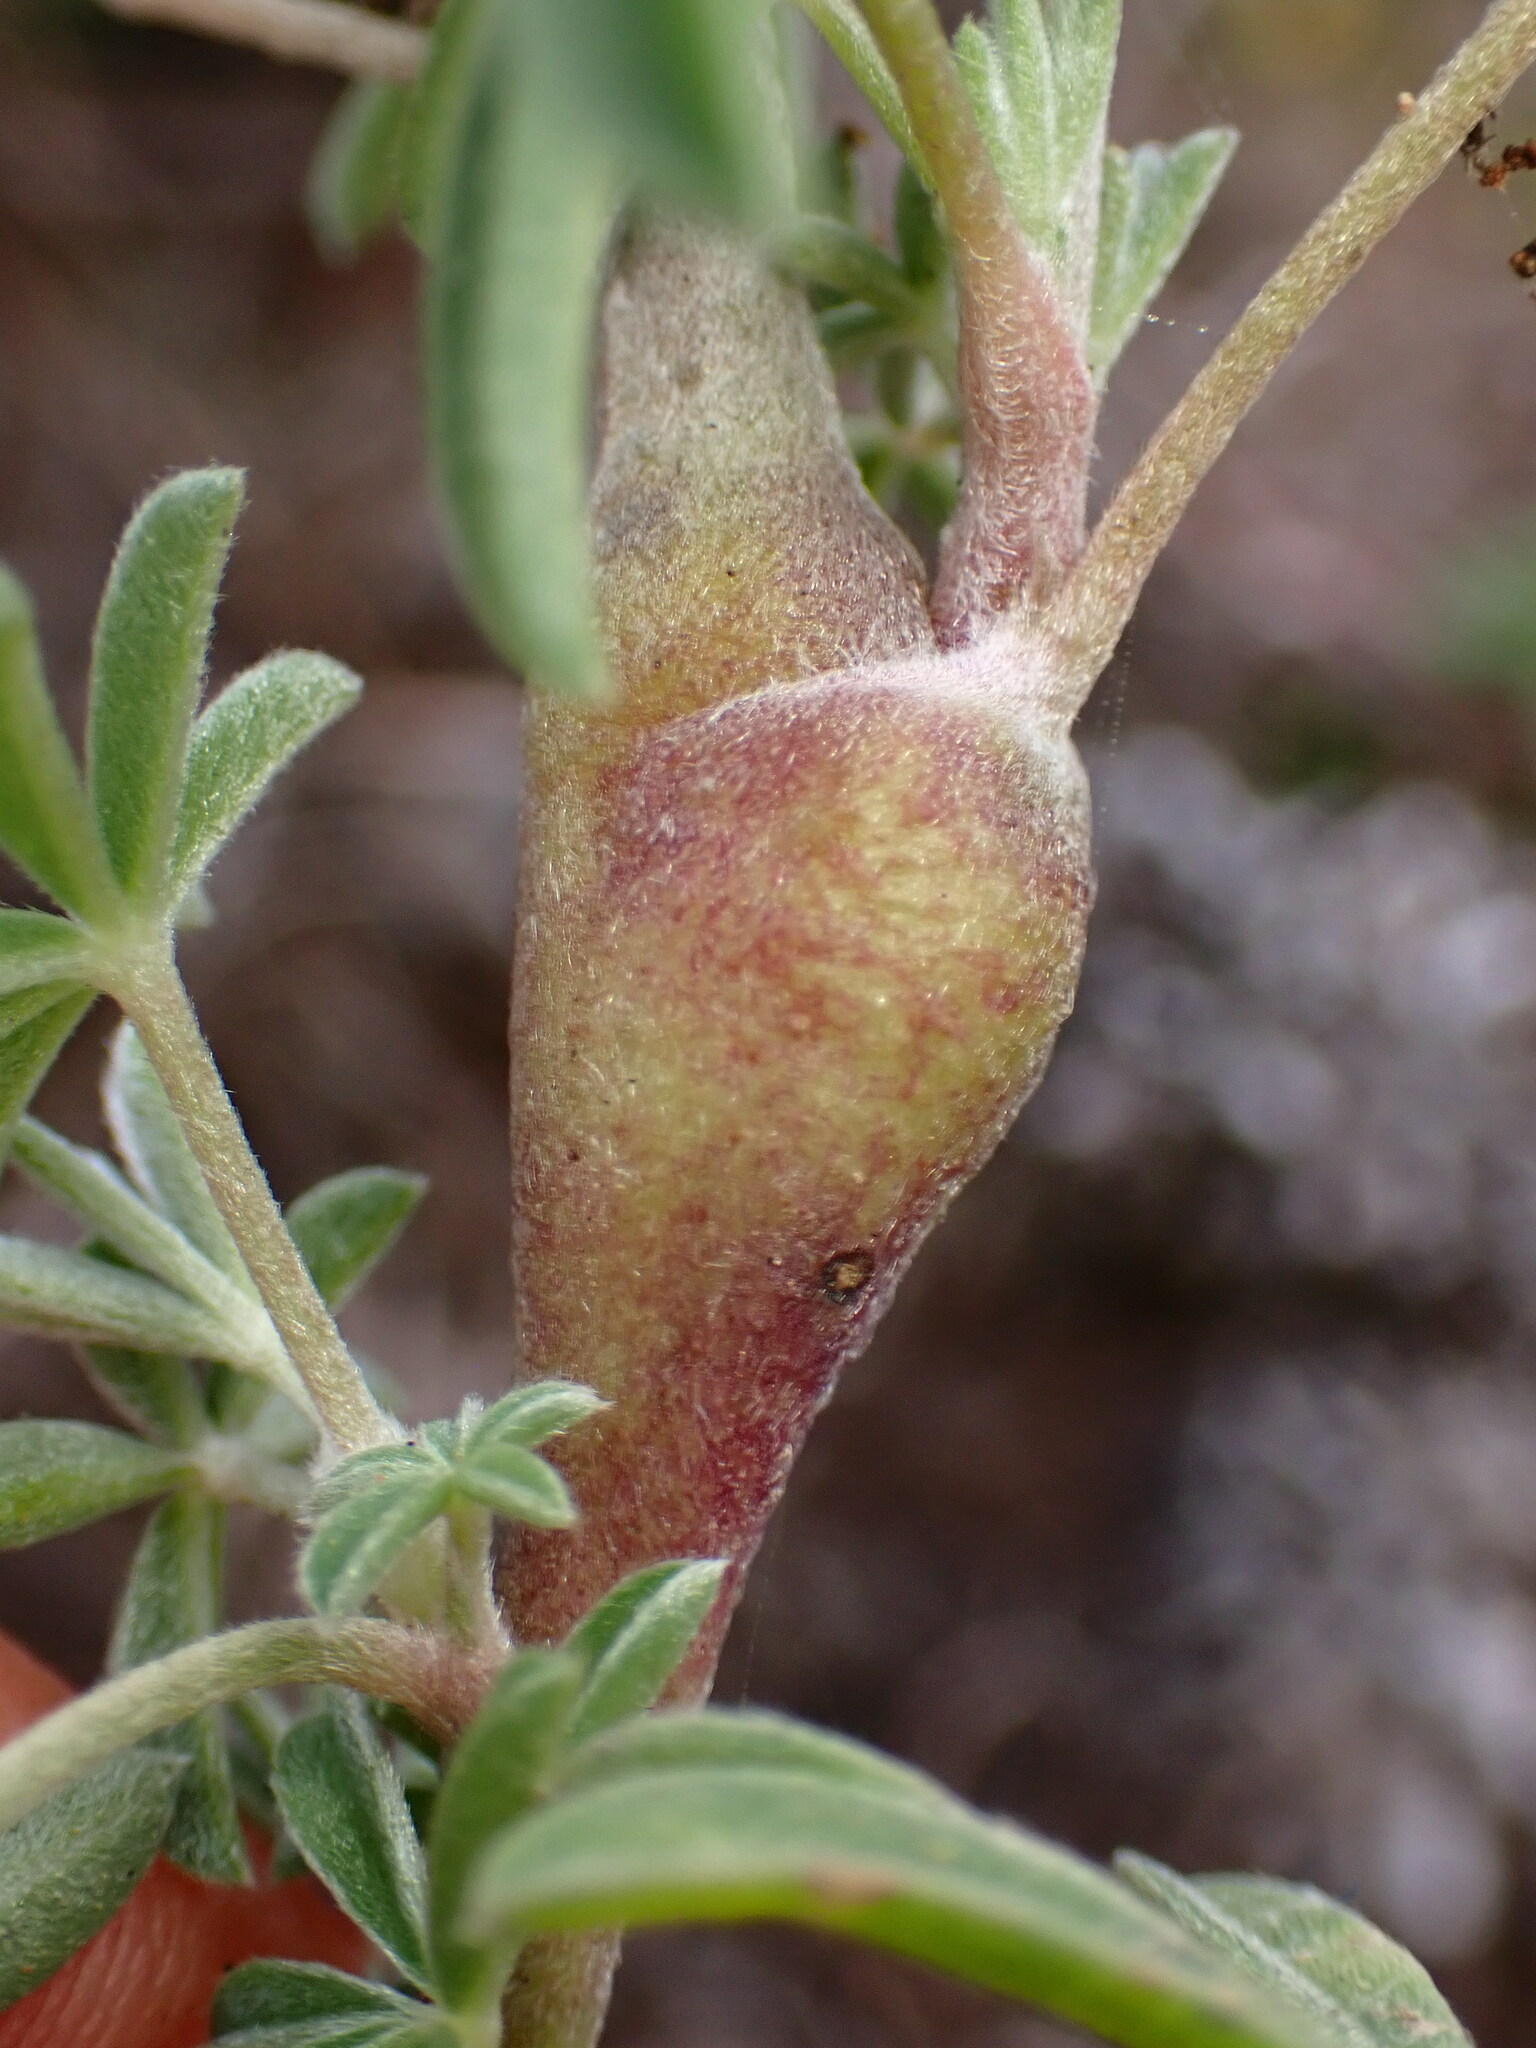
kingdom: Animalia
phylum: Arthropoda
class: Insecta
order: Diptera
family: Cecidomyiidae
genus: Neolasioptera
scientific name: Neolasioptera lupini
